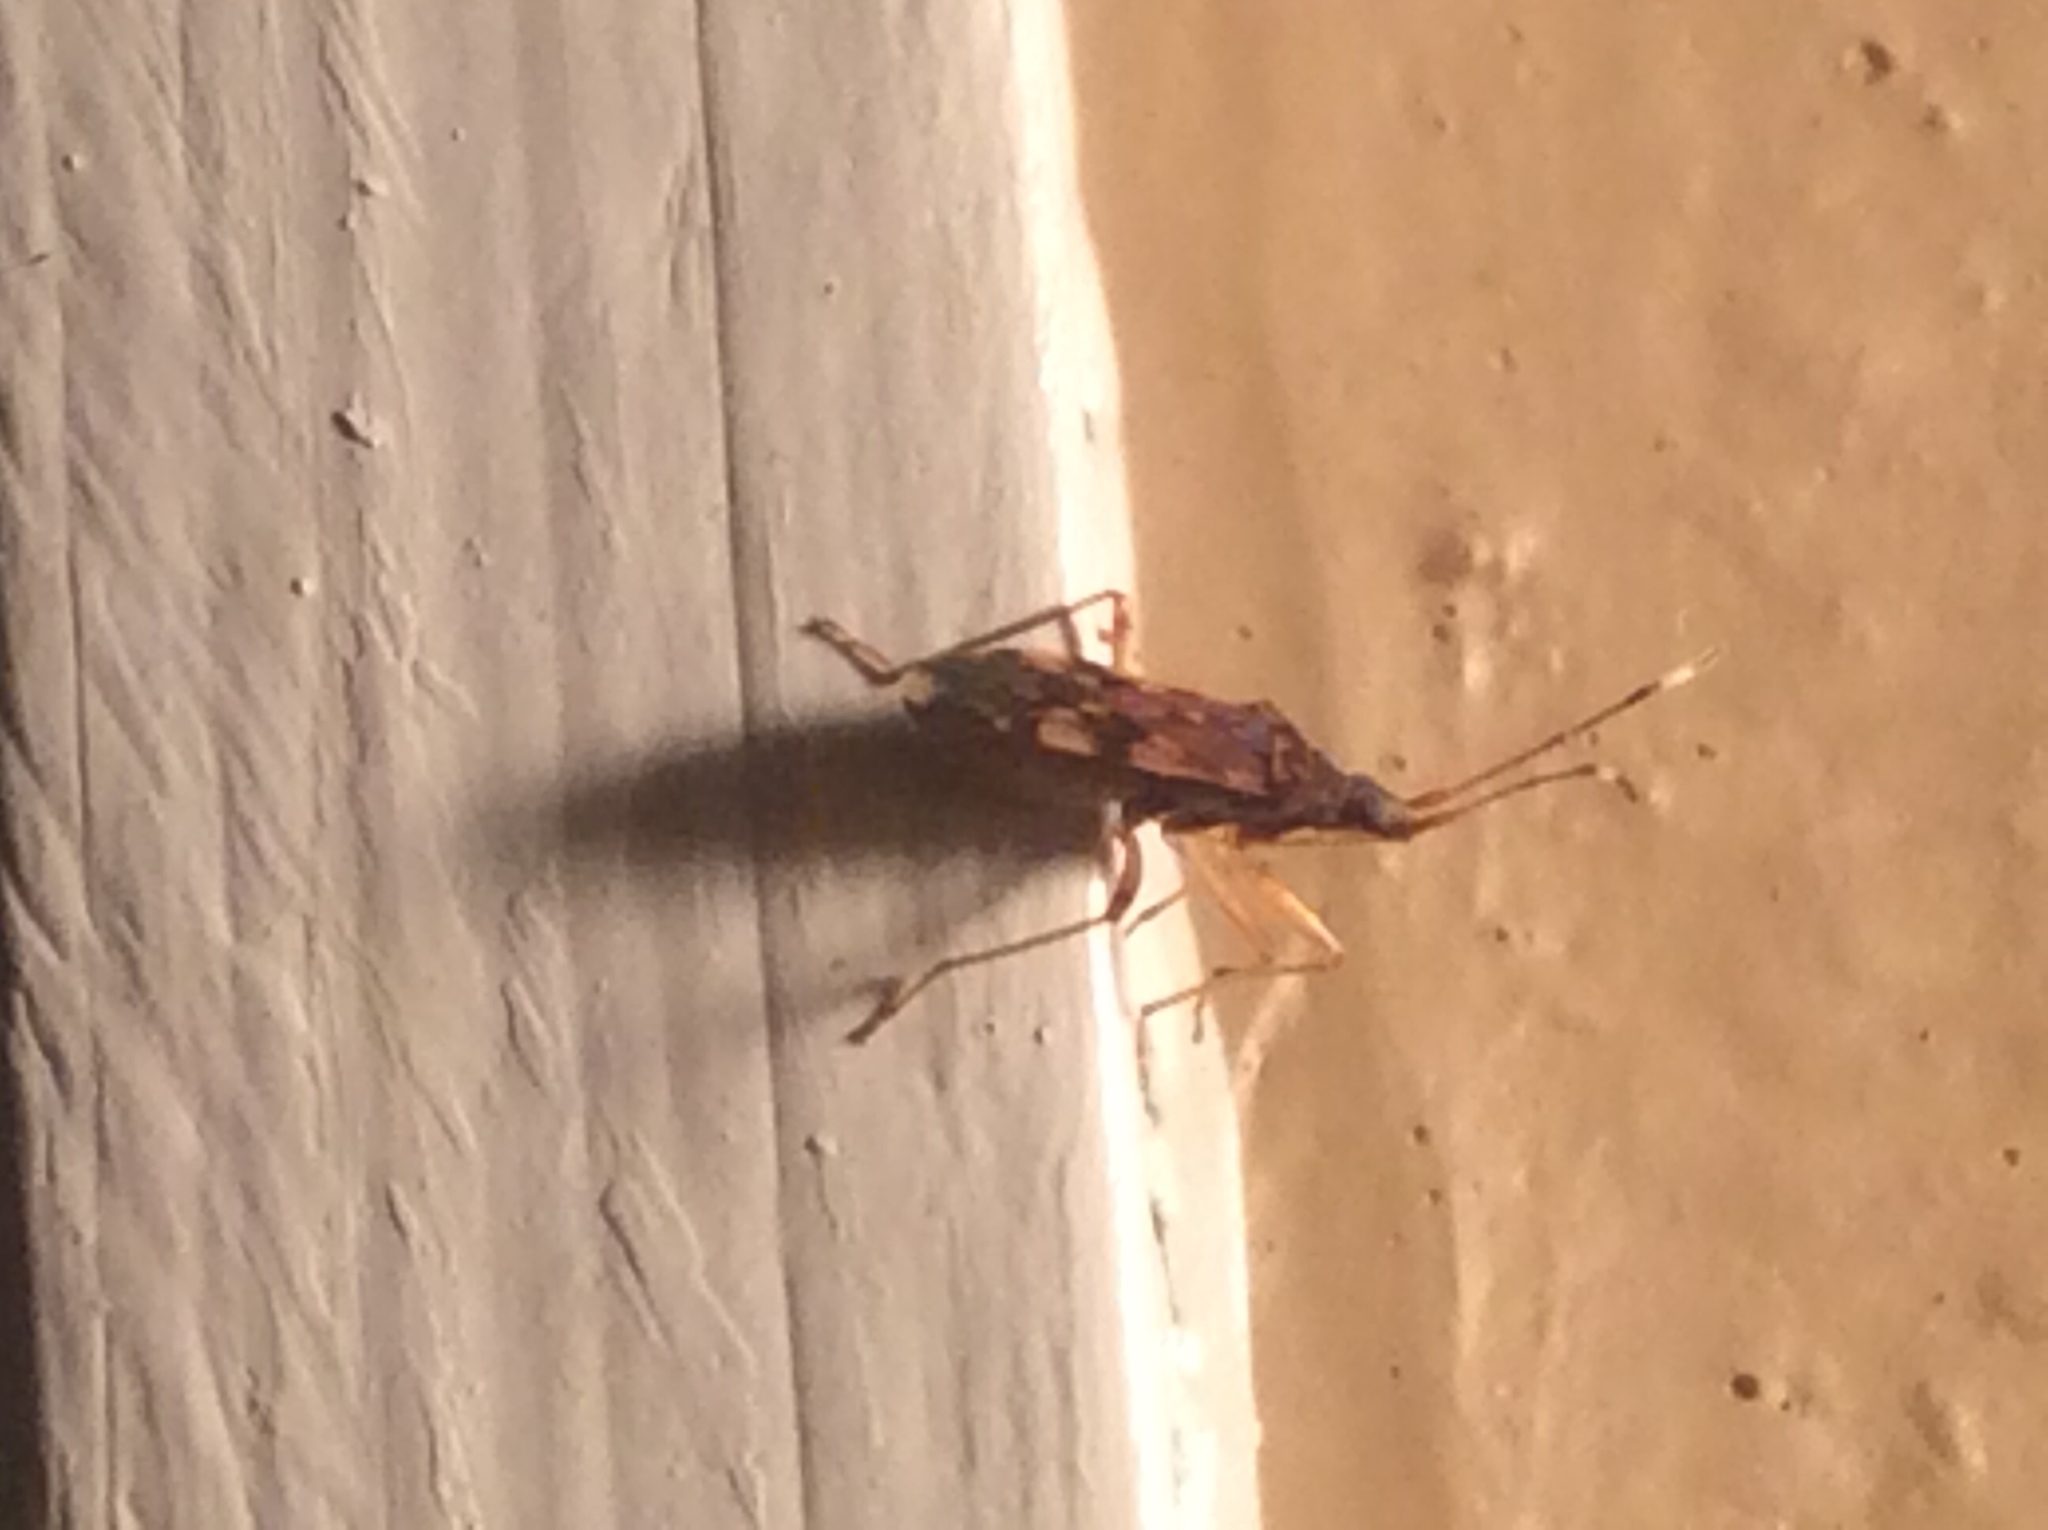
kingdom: Animalia
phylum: Arthropoda
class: Insecta
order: Hemiptera
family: Rhyparochromidae
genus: Ozophora
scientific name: Ozophora picturata
